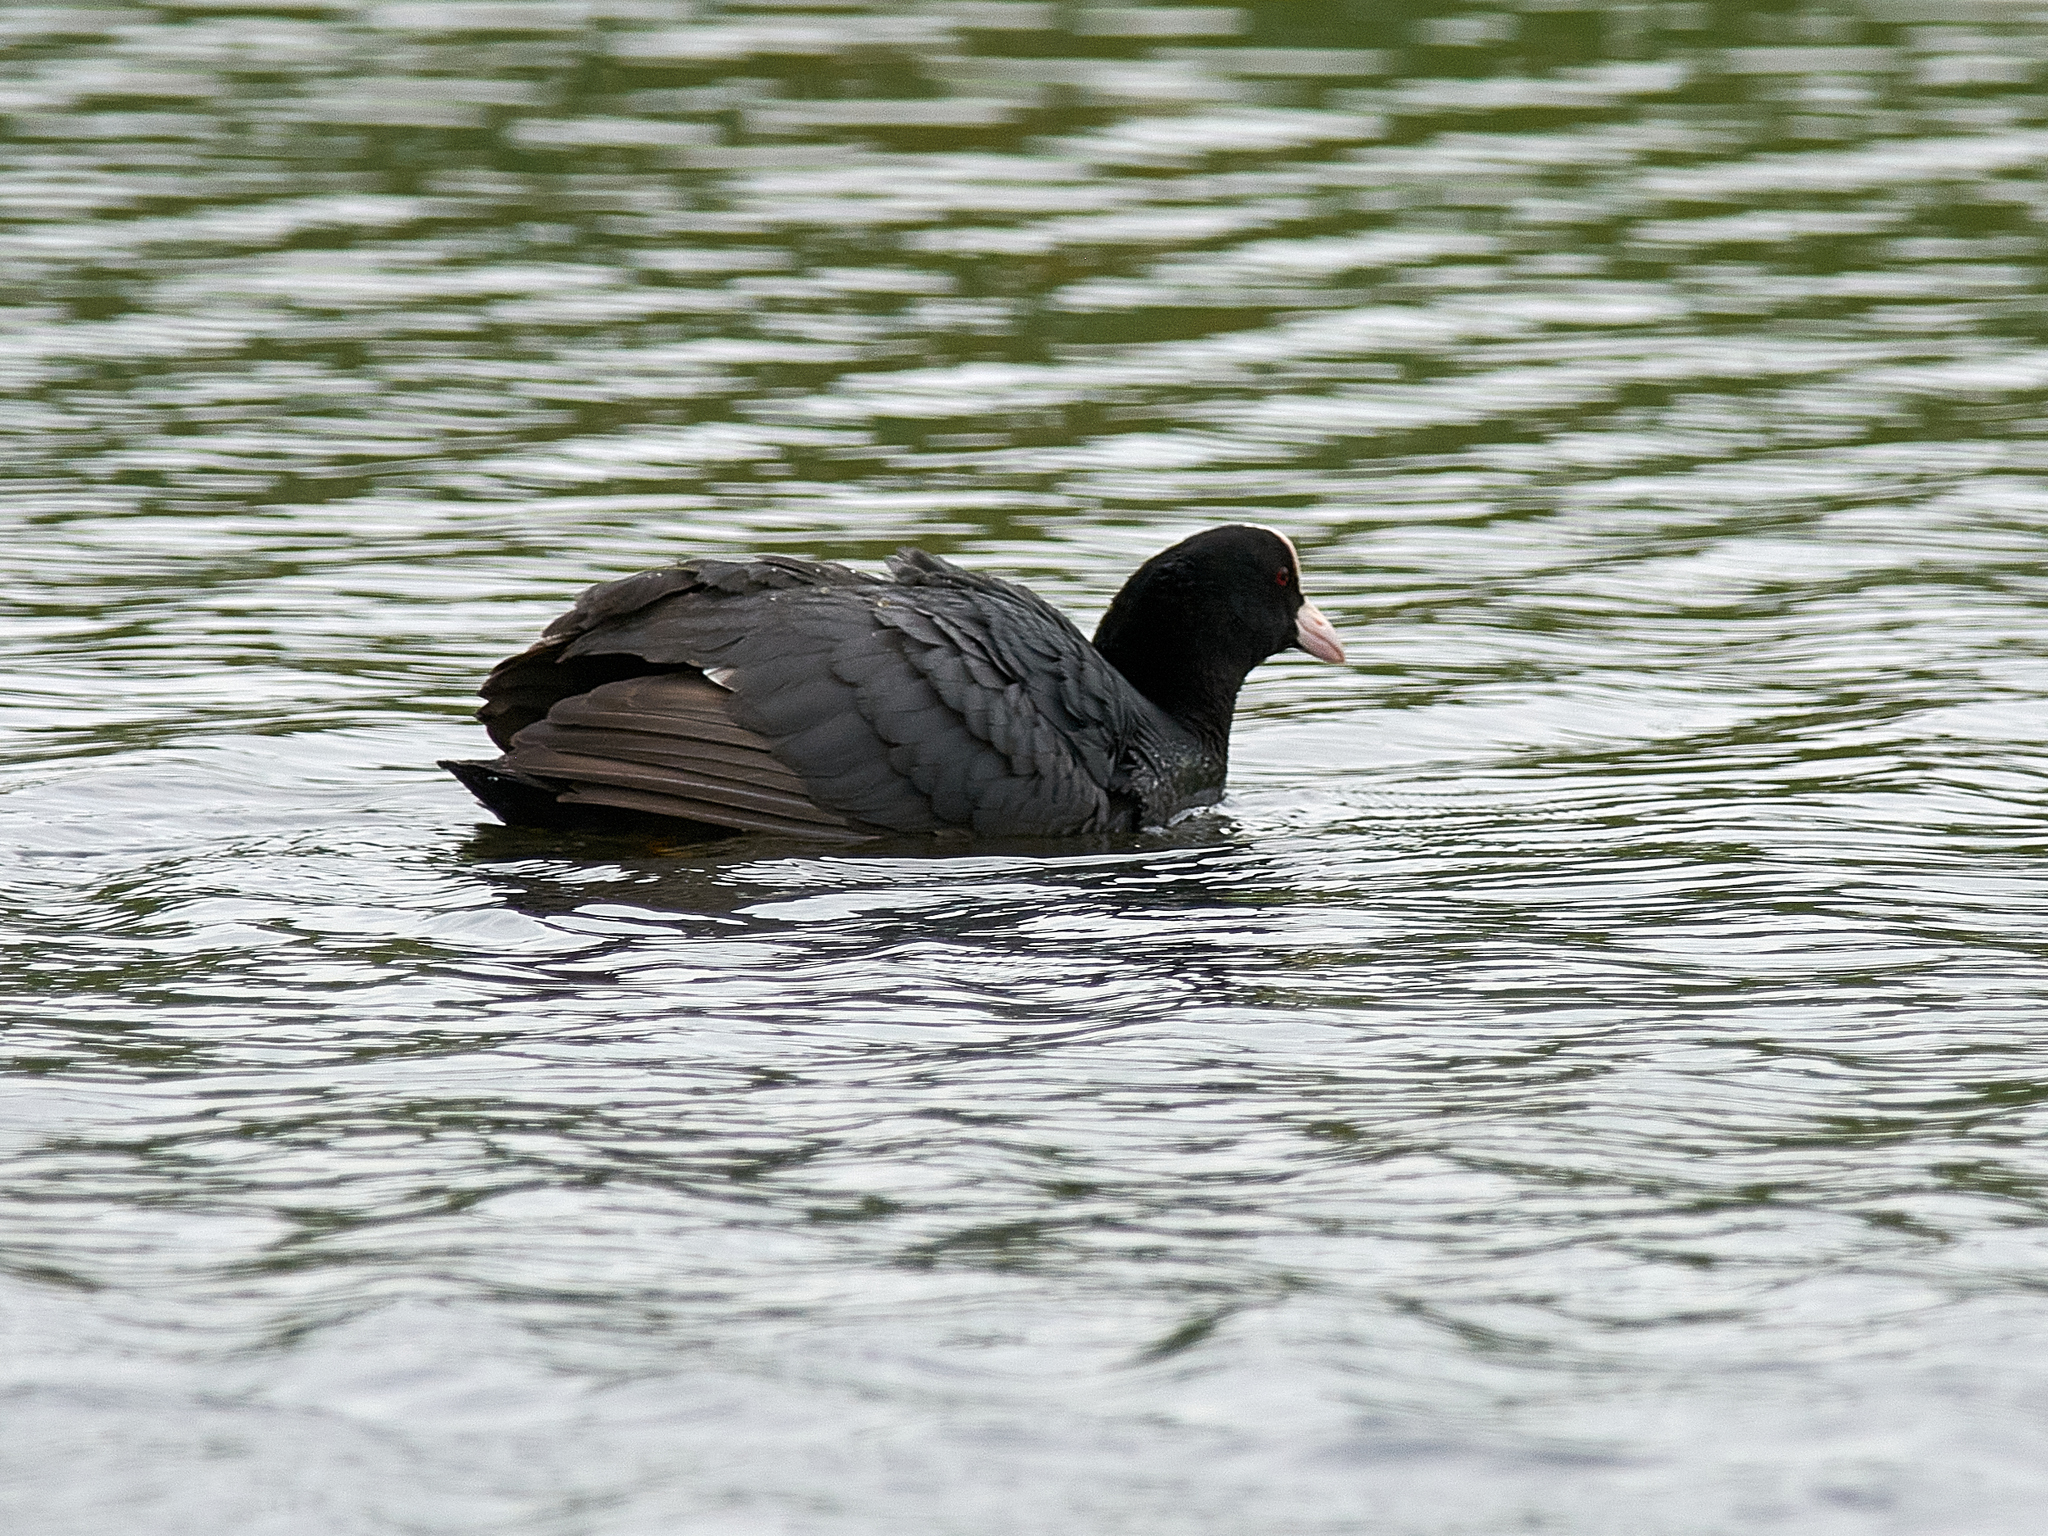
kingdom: Animalia
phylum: Chordata
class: Aves
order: Gruiformes
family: Rallidae
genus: Fulica
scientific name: Fulica atra
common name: Eurasian coot
